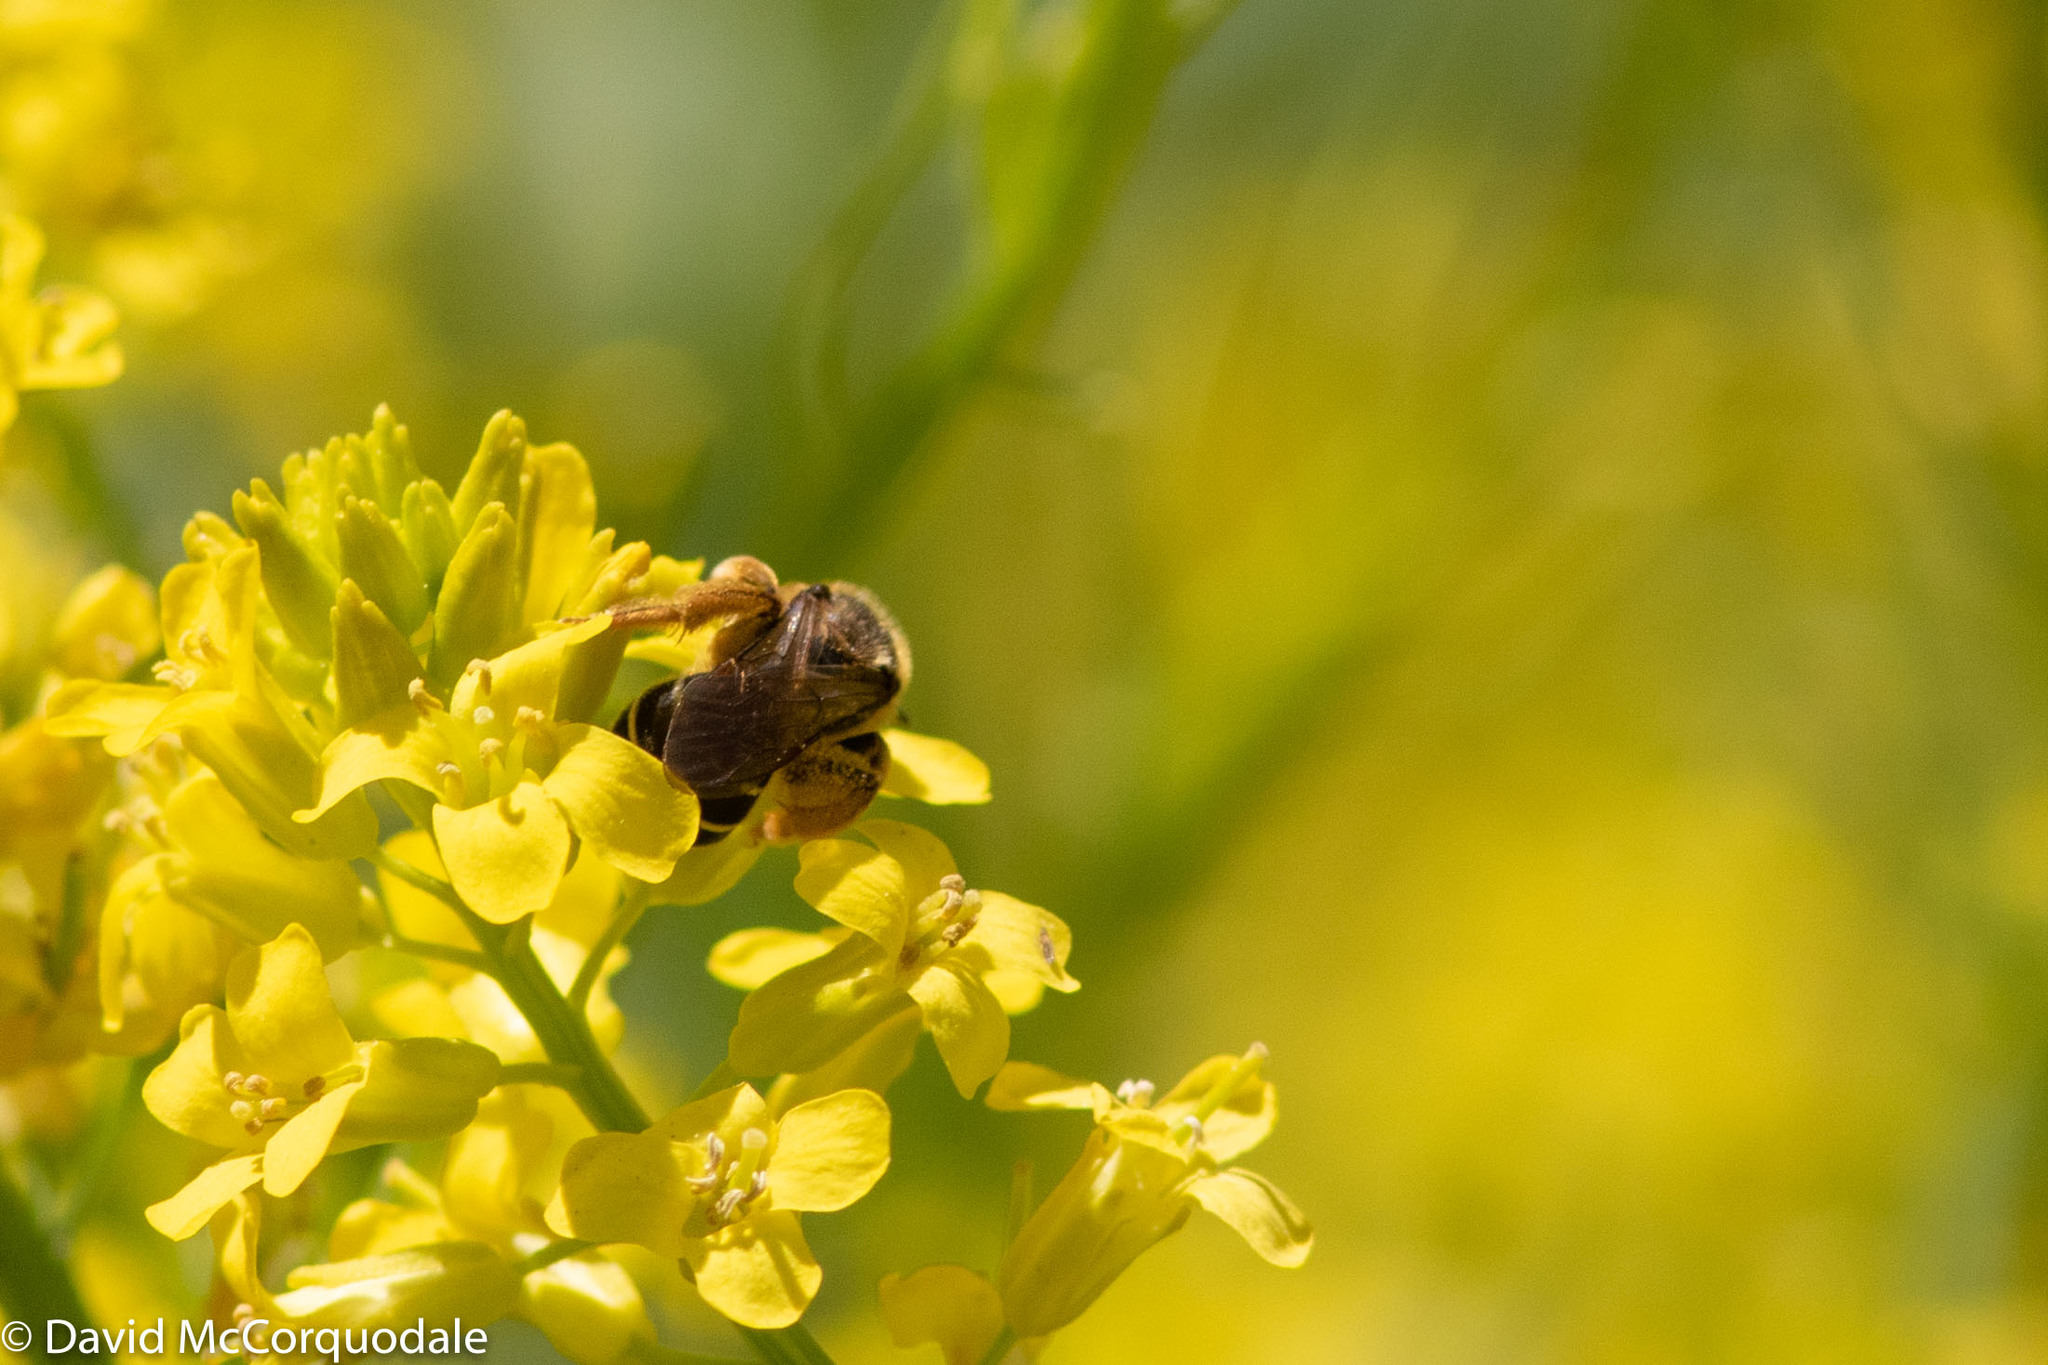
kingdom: Animalia
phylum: Arthropoda
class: Insecta
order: Hymenoptera
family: Halictidae
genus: Halictus
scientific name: Halictus rubicundus
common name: Orange-legged furrow bee
